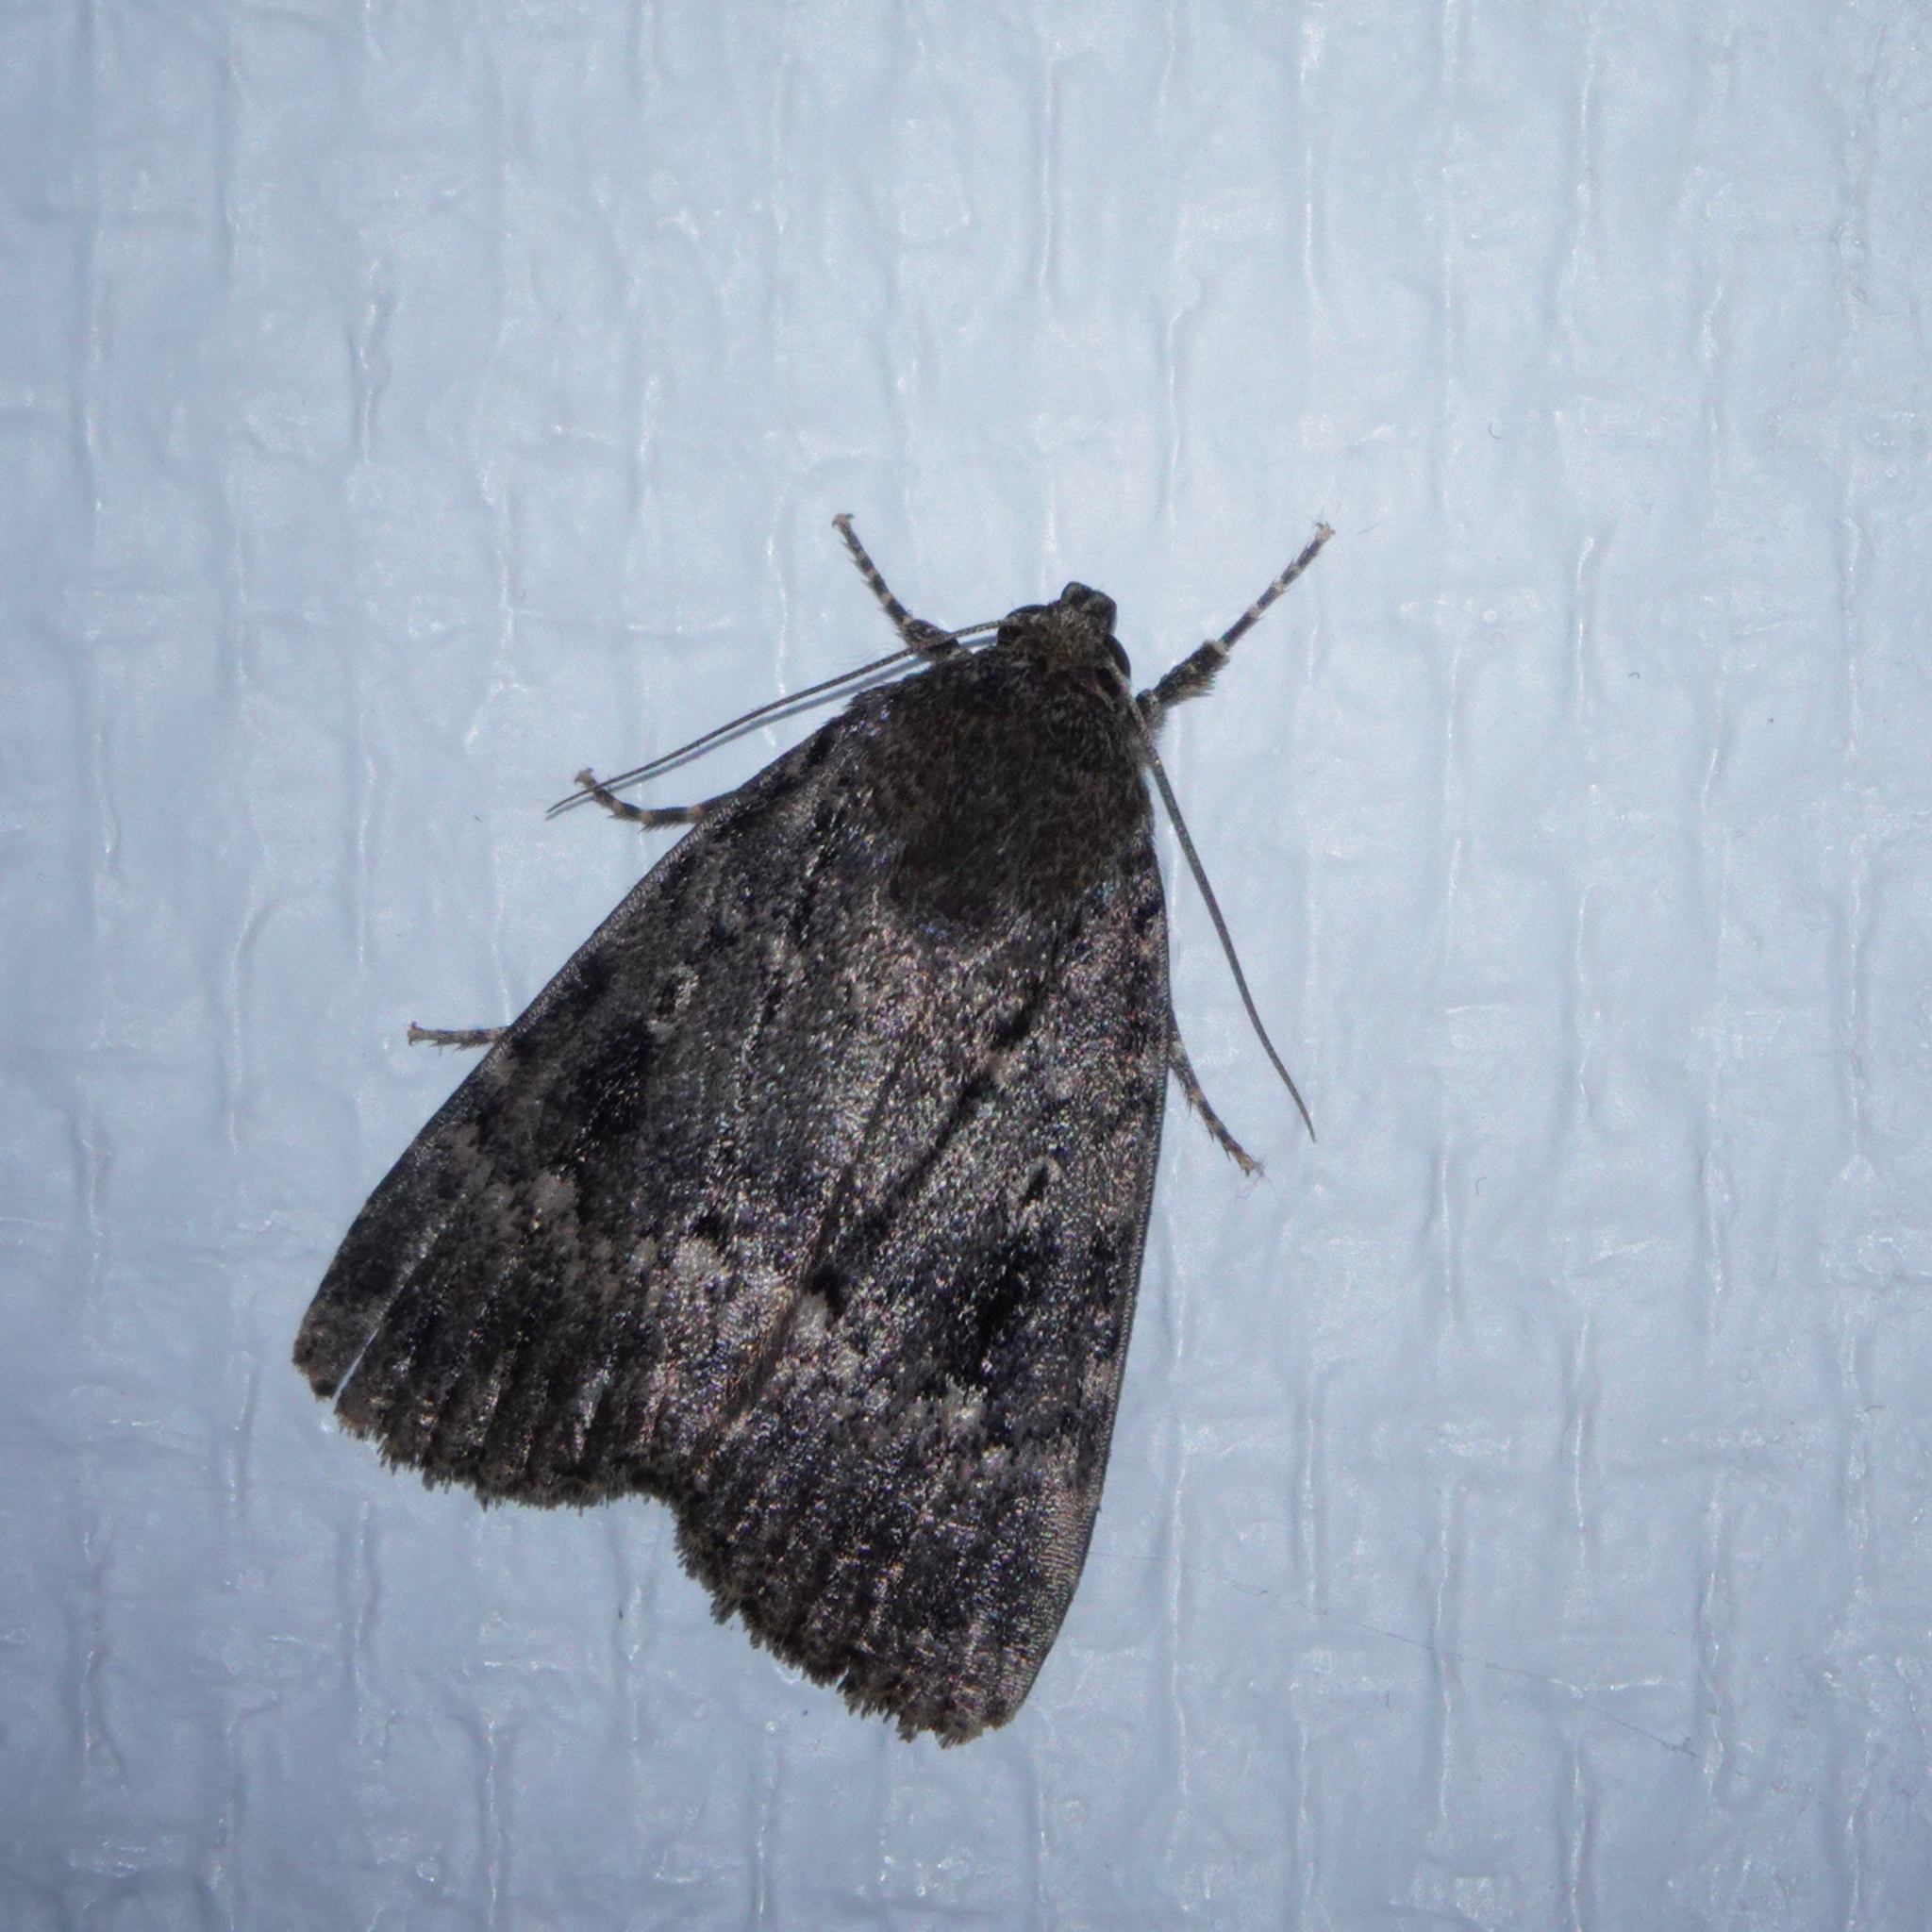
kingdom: Animalia
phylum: Arthropoda
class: Insecta
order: Lepidoptera
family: Noctuidae
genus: Amphipyra
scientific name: Amphipyra pyramidea
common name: Copper underwing
